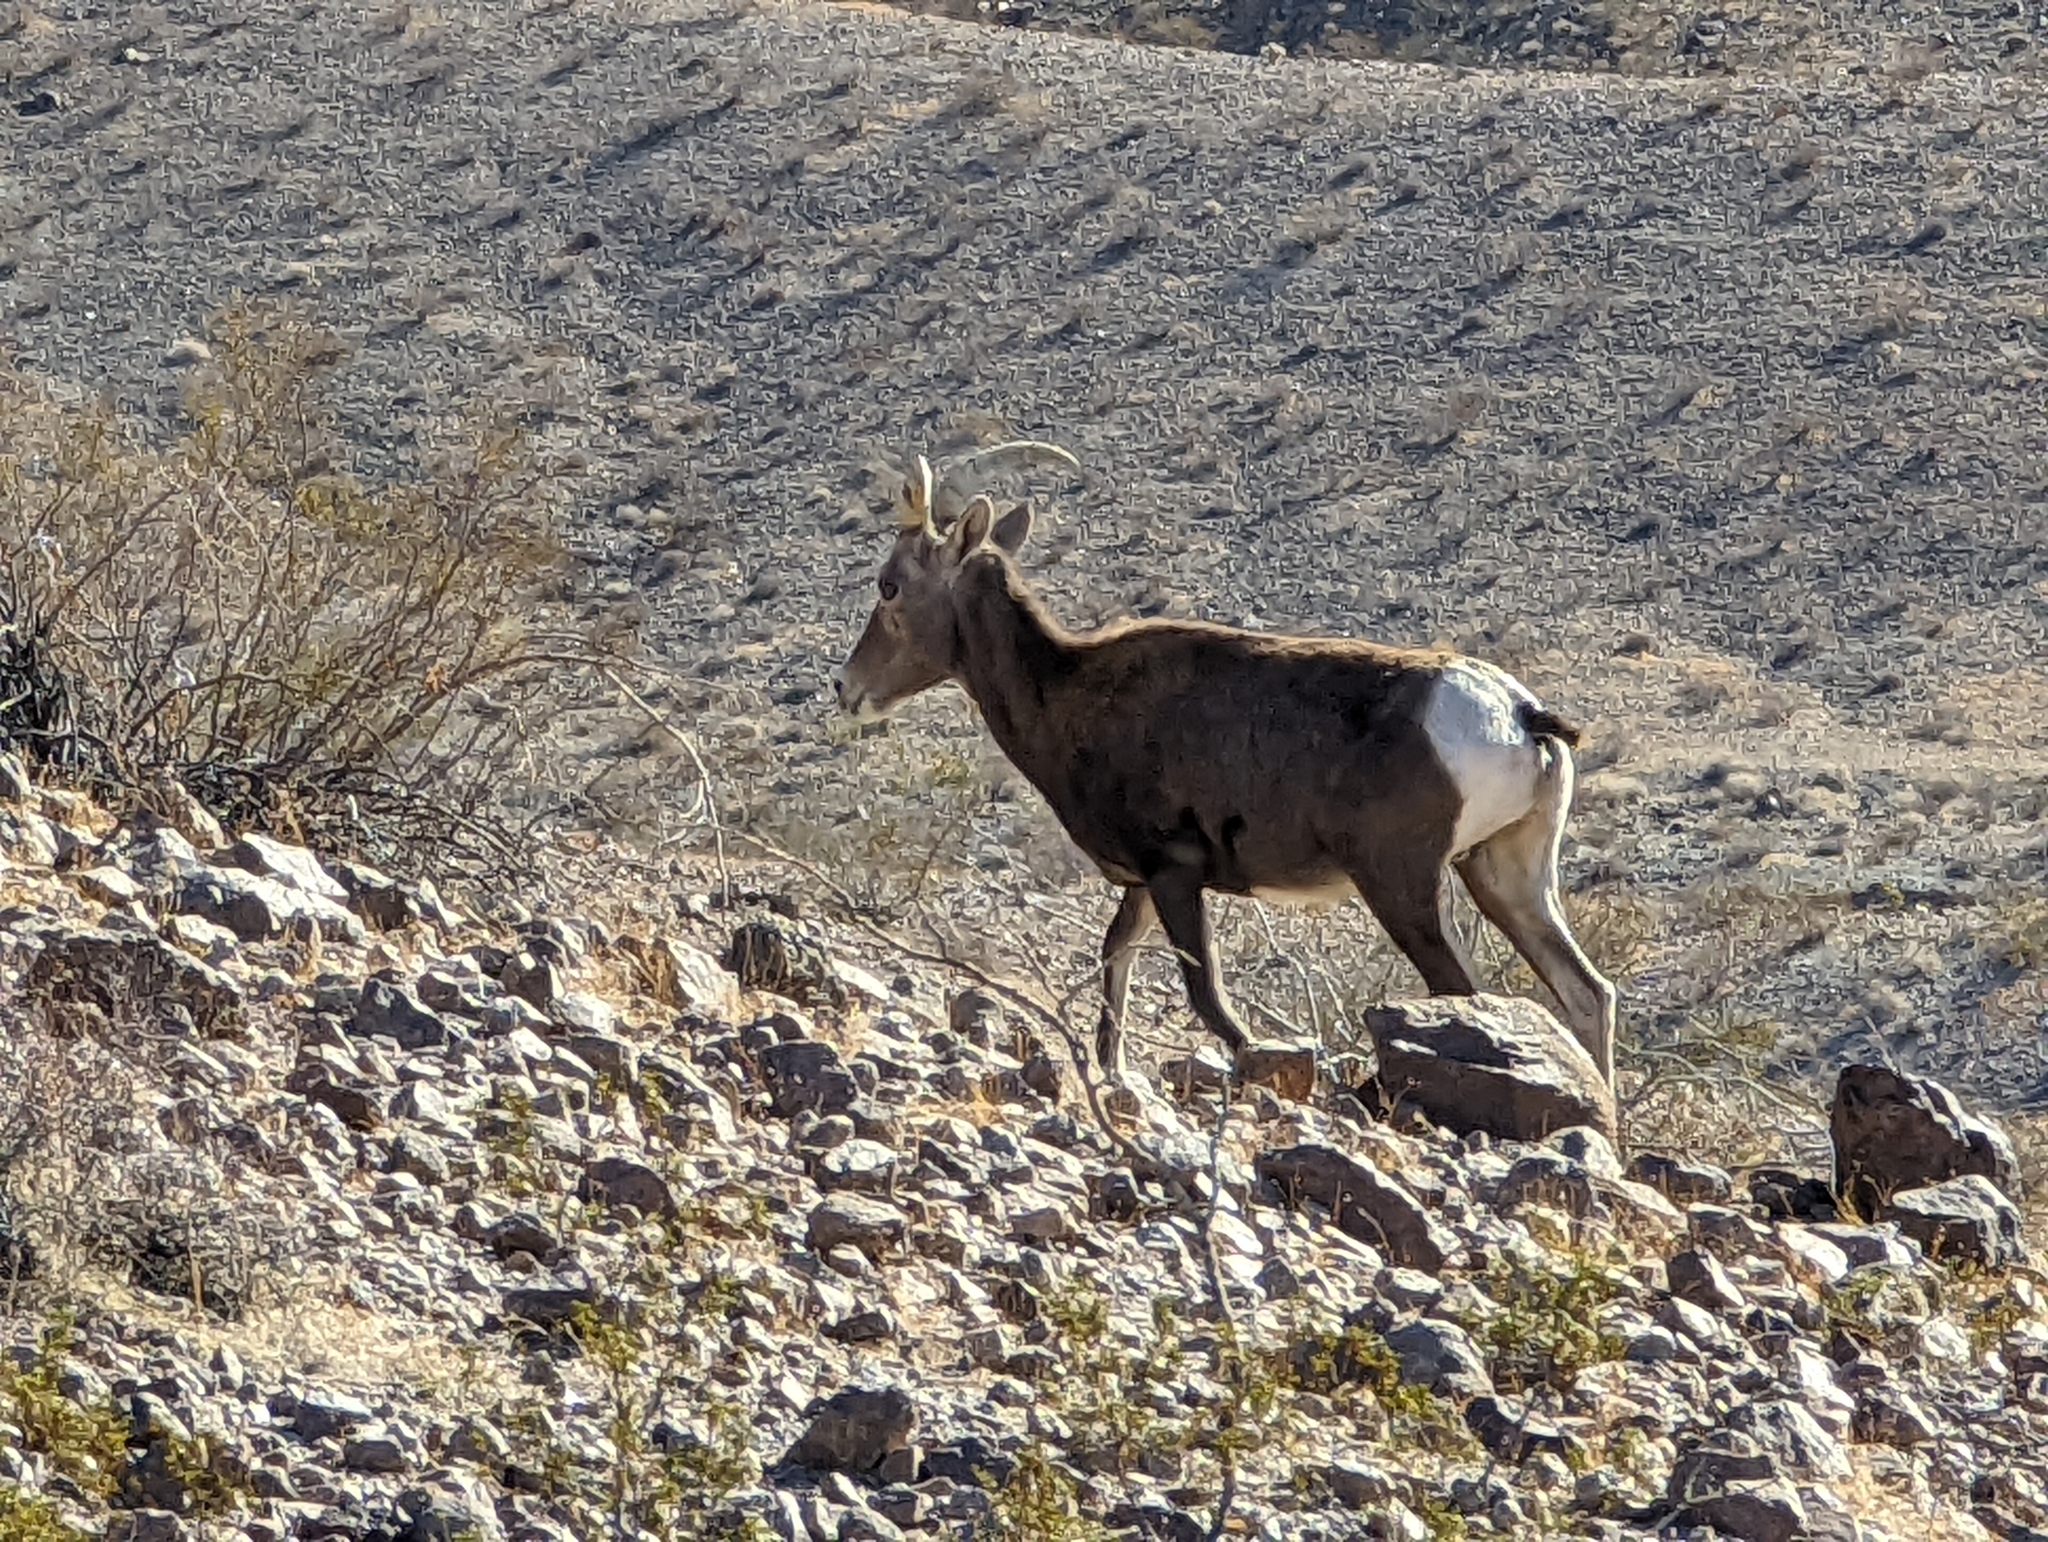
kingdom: Animalia
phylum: Chordata
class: Mammalia
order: Artiodactyla
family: Bovidae
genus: Ovis
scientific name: Ovis canadensis
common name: Bighorn sheep
